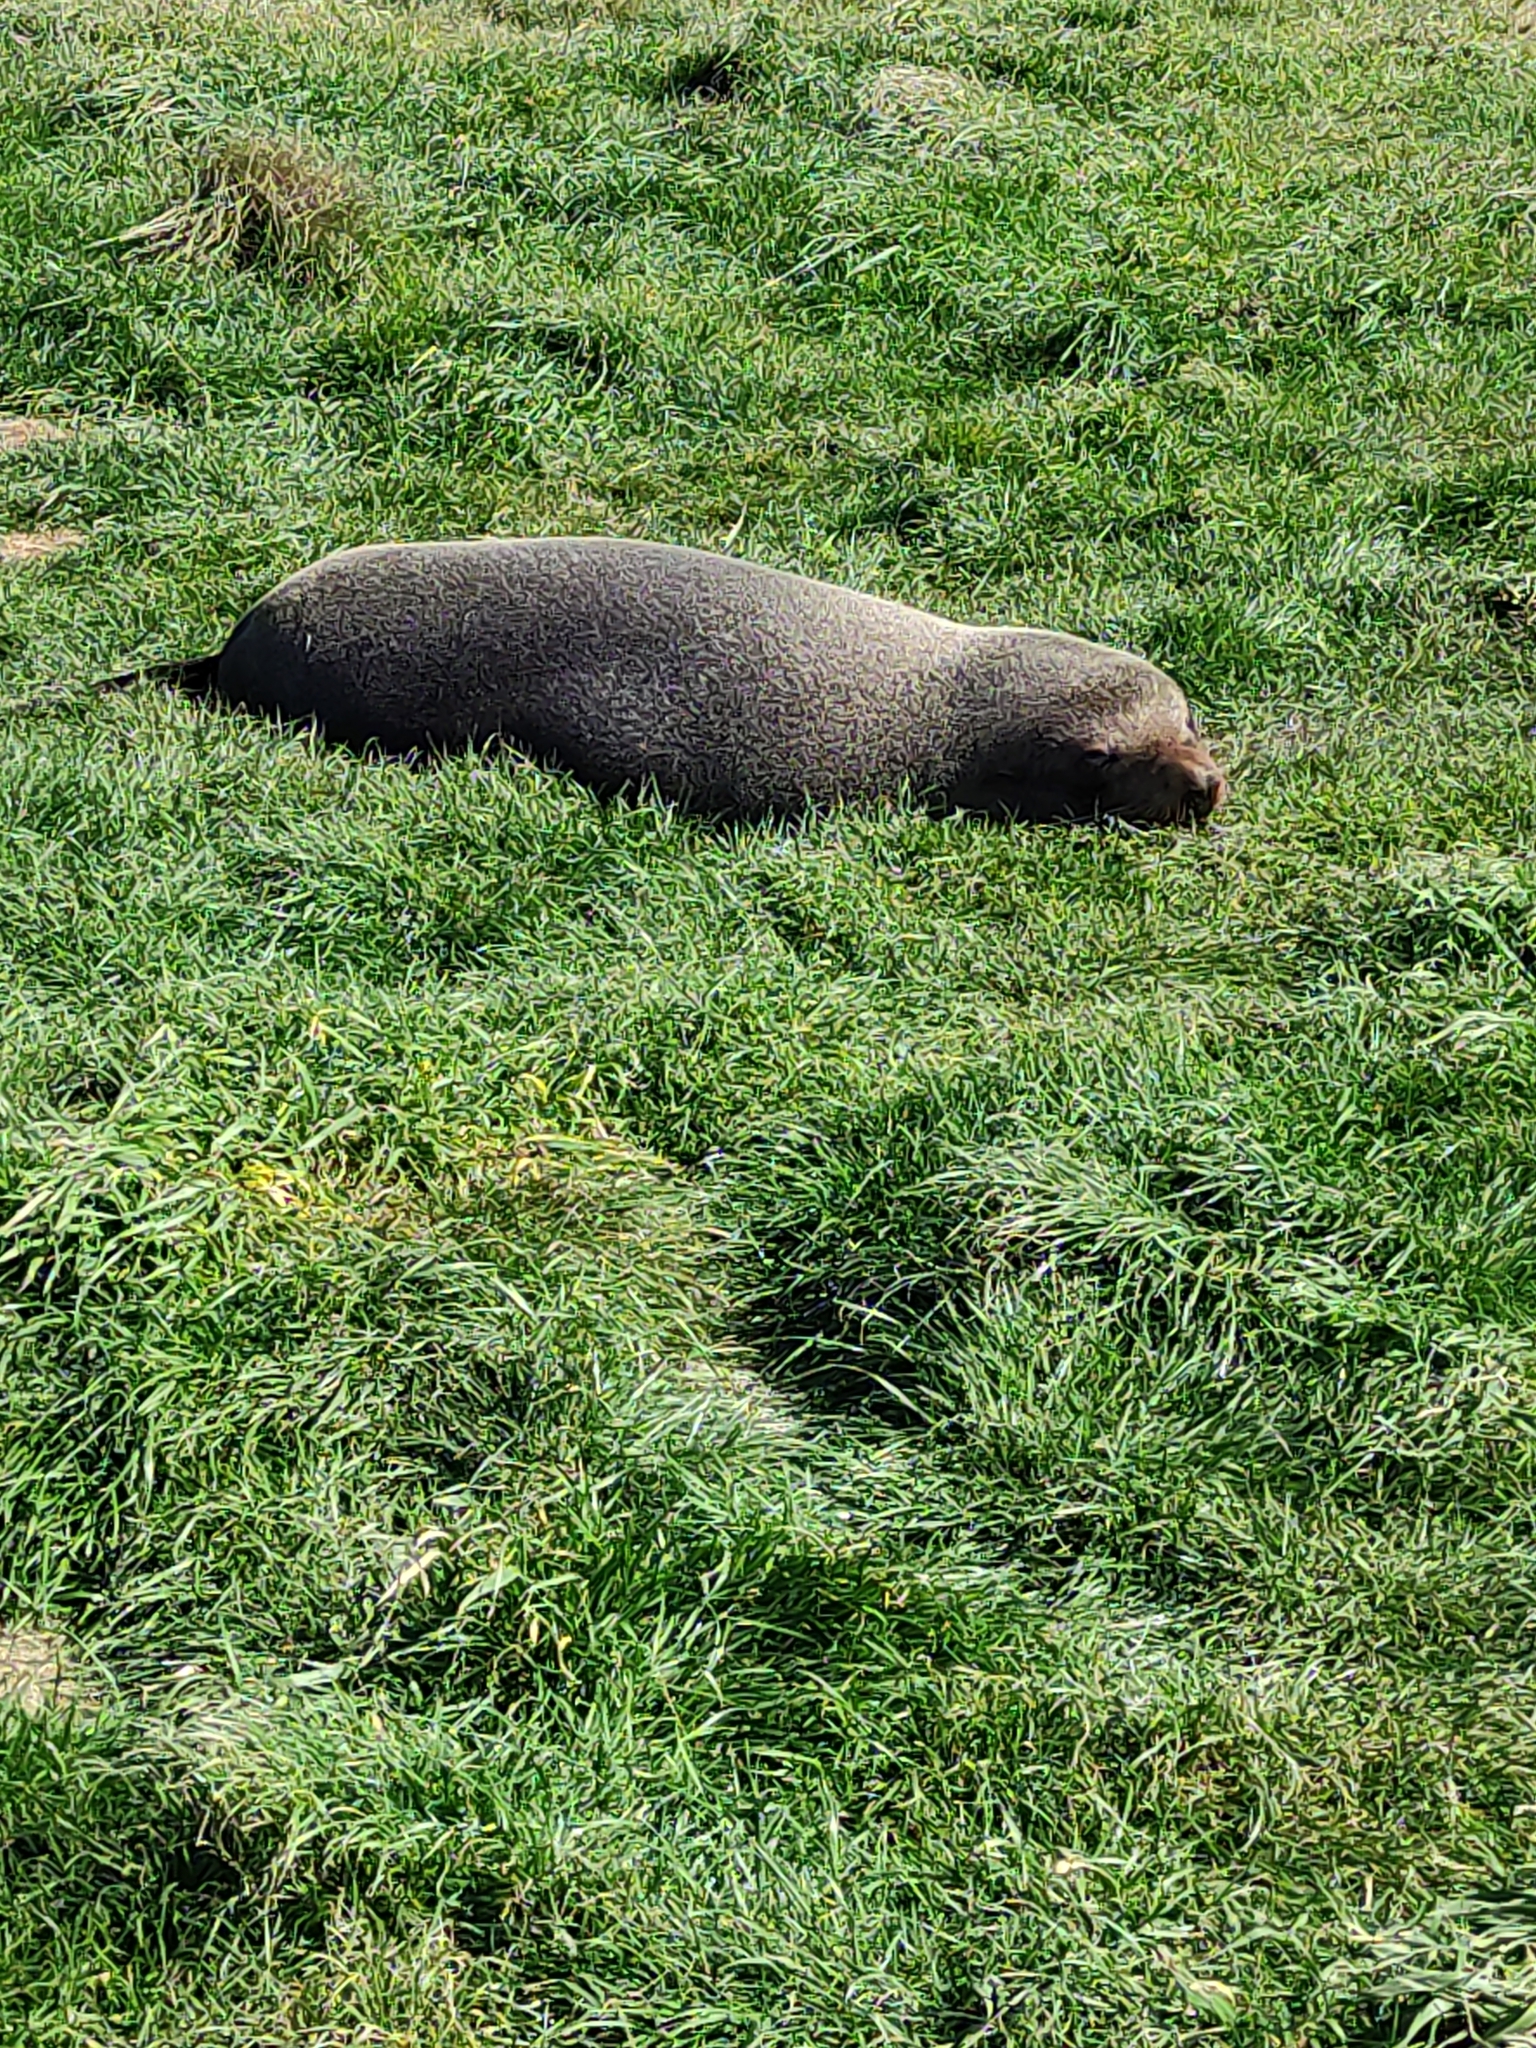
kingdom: Animalia
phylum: Chordata
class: Mammalia
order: Carnivora
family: Otariidae
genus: Arctocephalus
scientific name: Arctocephalus forsteri
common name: New zealand fur seal
